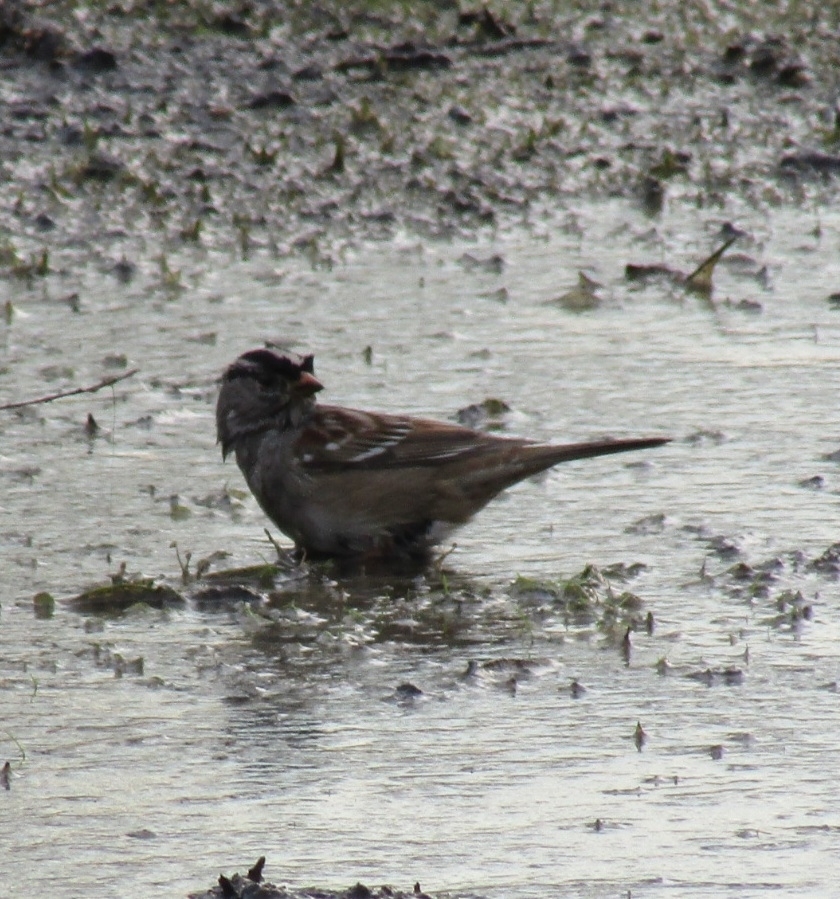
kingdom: Animalia
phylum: Chordata
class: Aves
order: Passeriformes
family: Passerellidae
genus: Zonotrichia
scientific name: Zonotrichia leucophrys
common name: White-crowned sparrow
